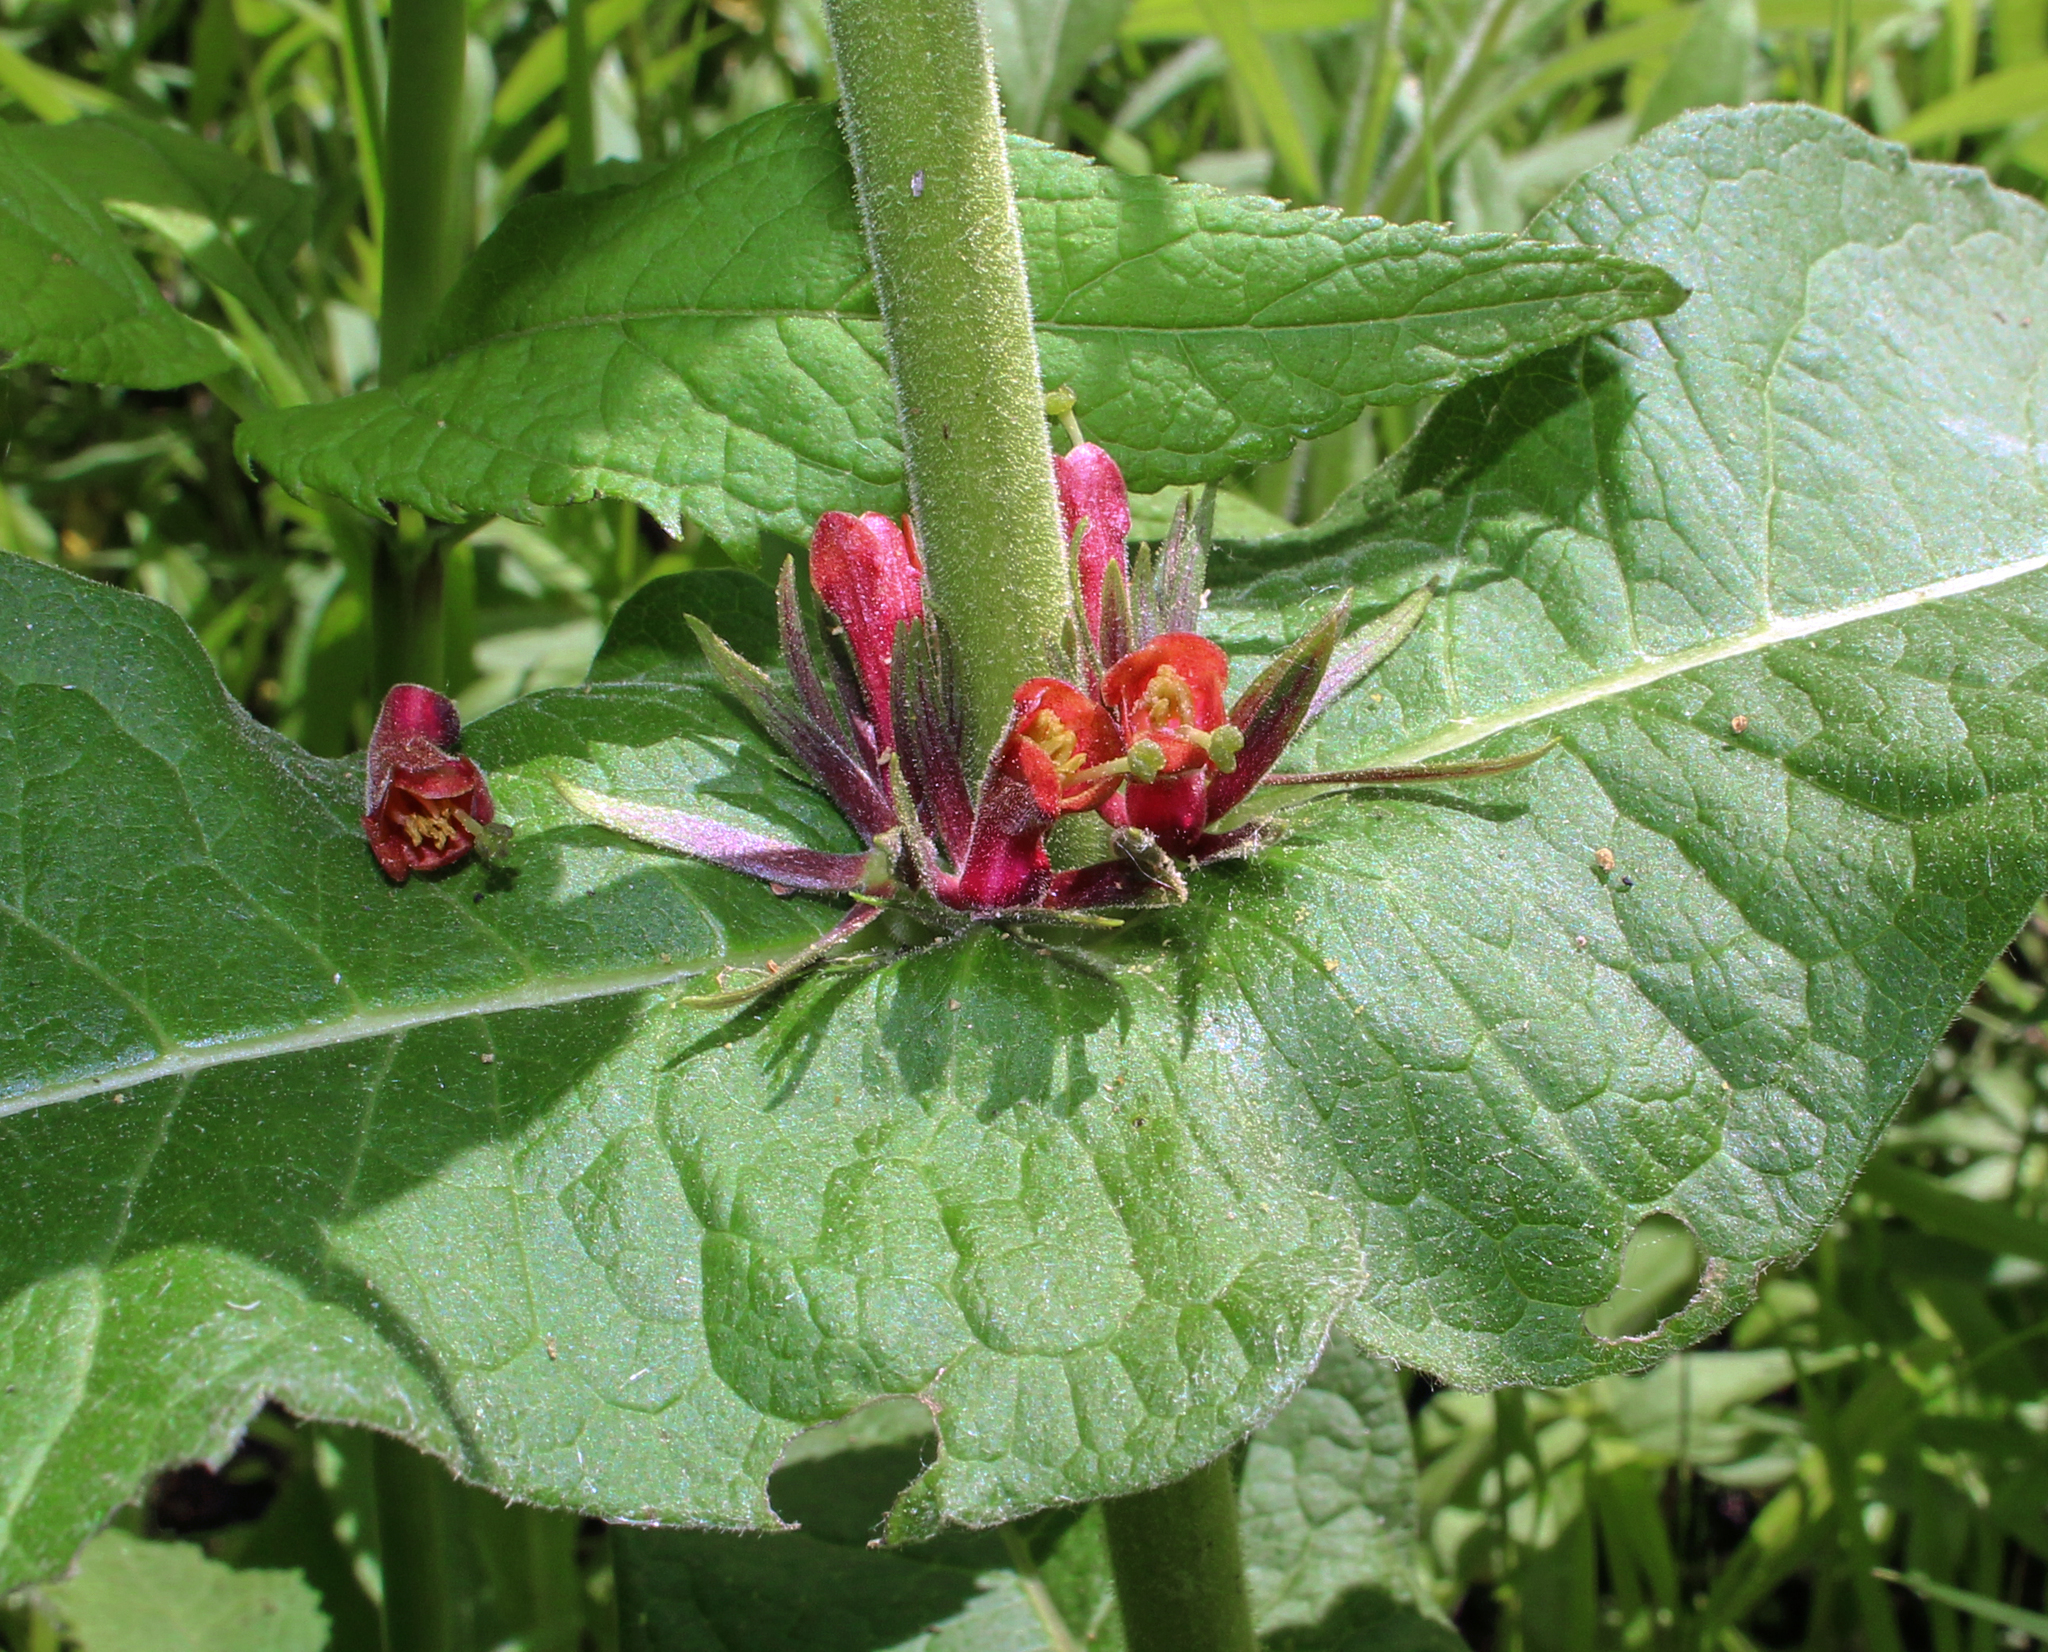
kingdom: Plantae
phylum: Tracheophyta
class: Magnoliopsida
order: Dipsacales
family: Caprifoliaceae
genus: Triosteum
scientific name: Triosteum perfoliatum
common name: Common horse-gentian
